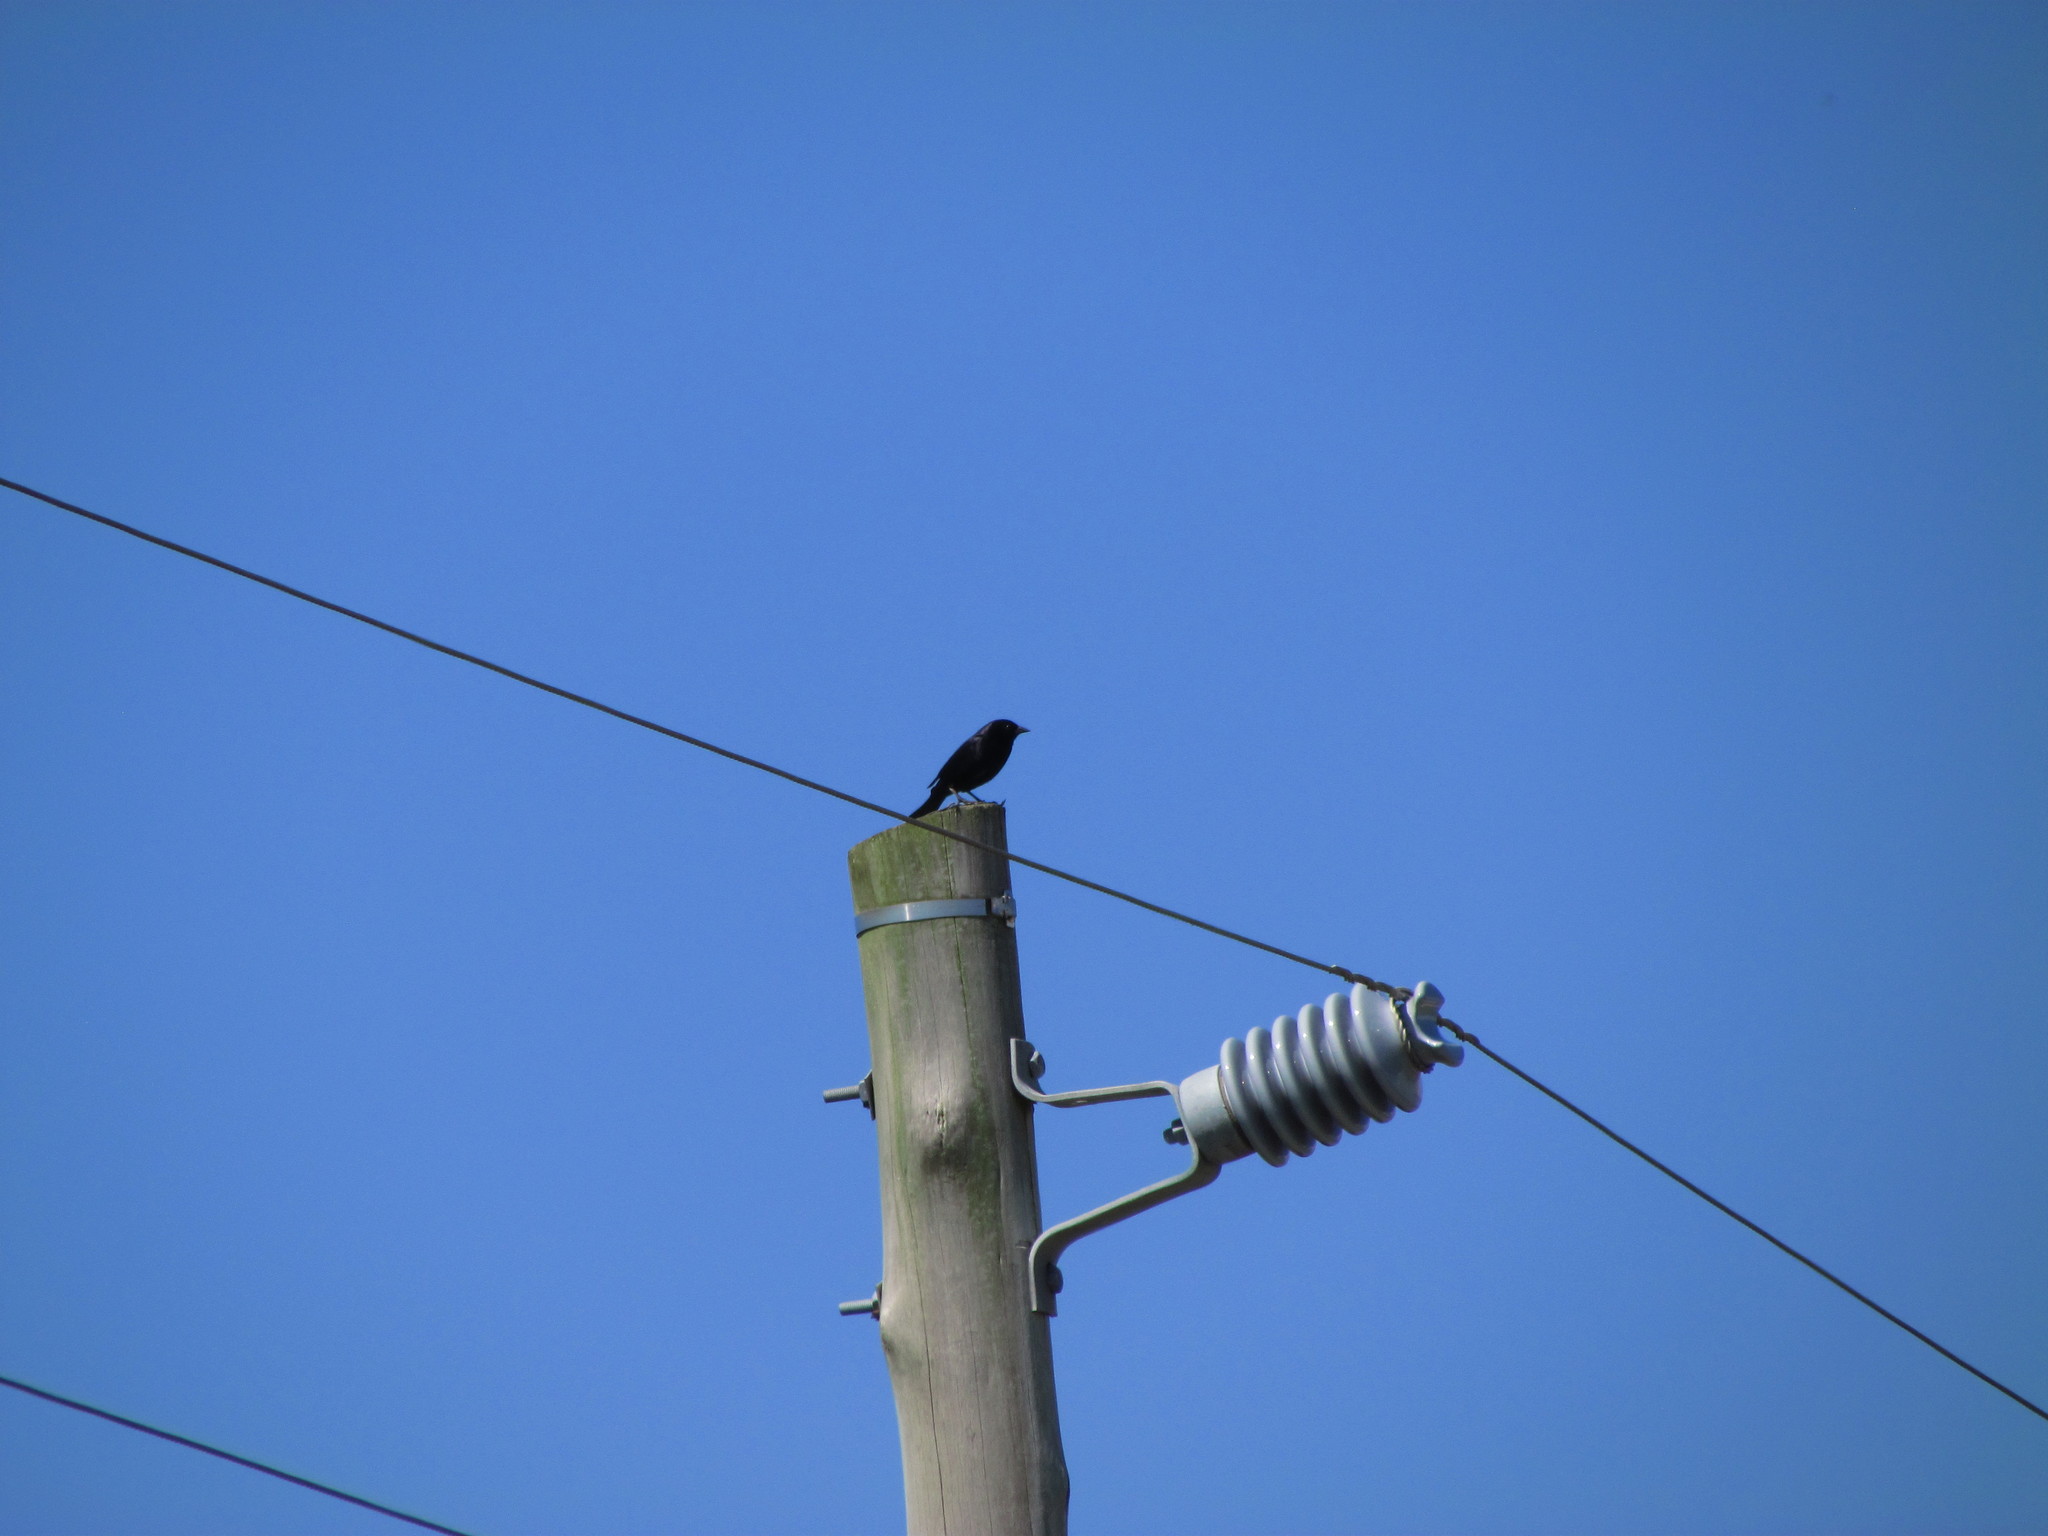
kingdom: Animalia
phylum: Chordata
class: Aves
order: Passeriformes
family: Icteridae
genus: Molothrus
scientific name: Molothrus bonariensis
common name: Shiny cowbird
